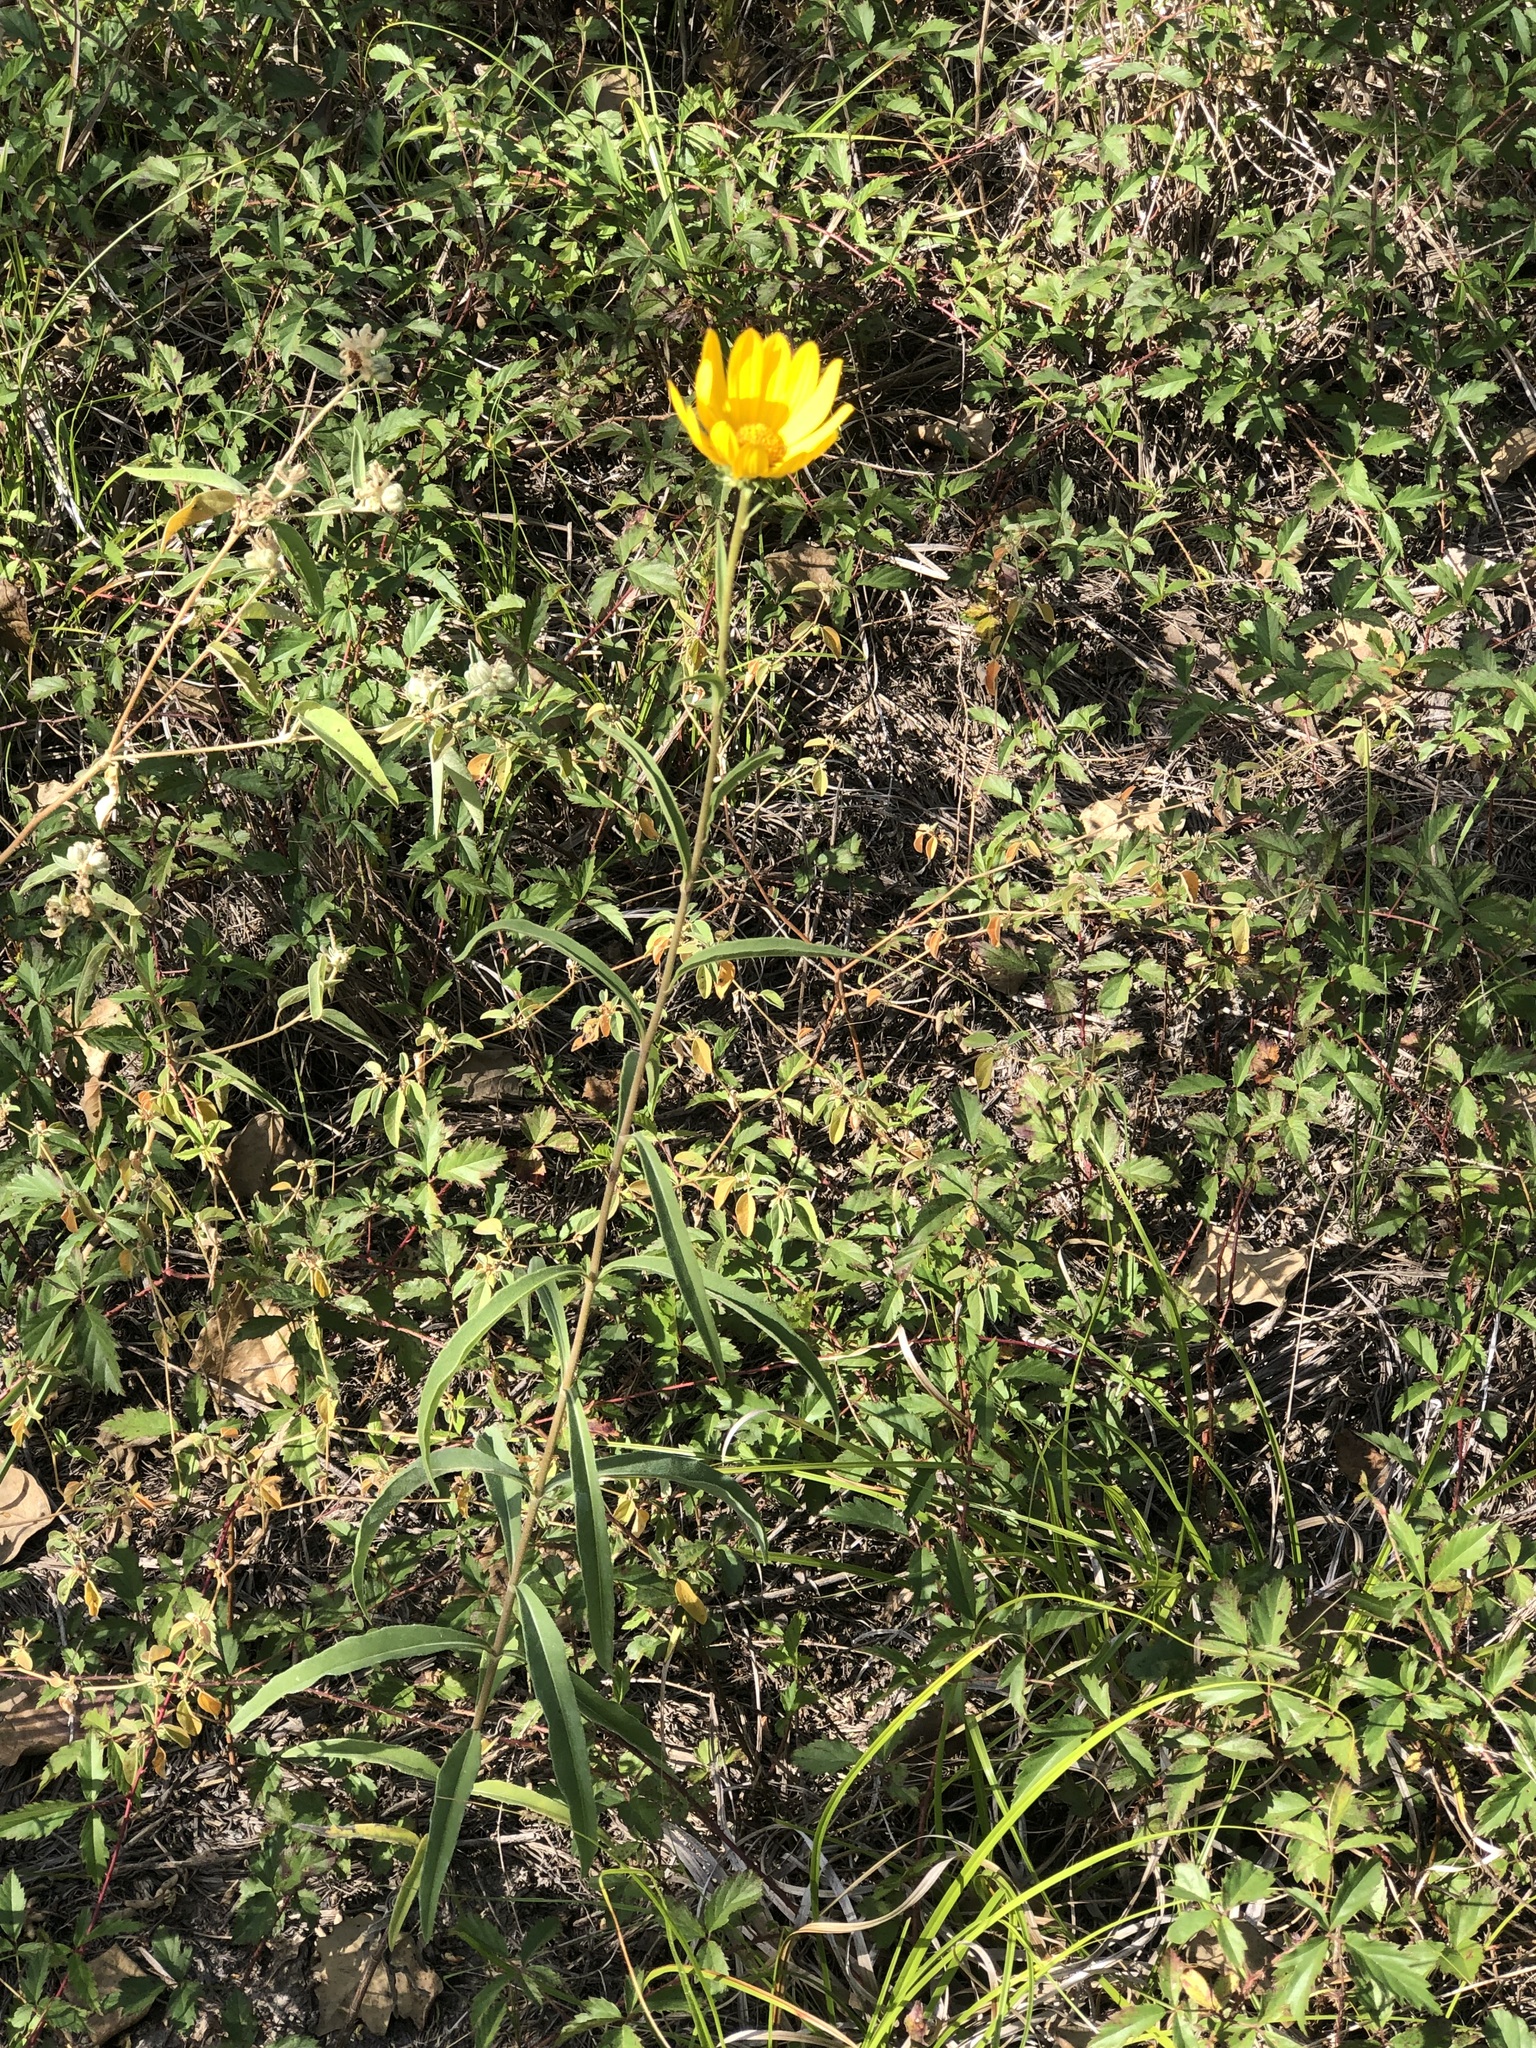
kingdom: Plantae
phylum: Tracheophyta
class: Magnoliopsida
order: Asterales
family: Asteraceae
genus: Helianthus
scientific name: Helianthus maximiliani
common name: Maximilian's sunflower
